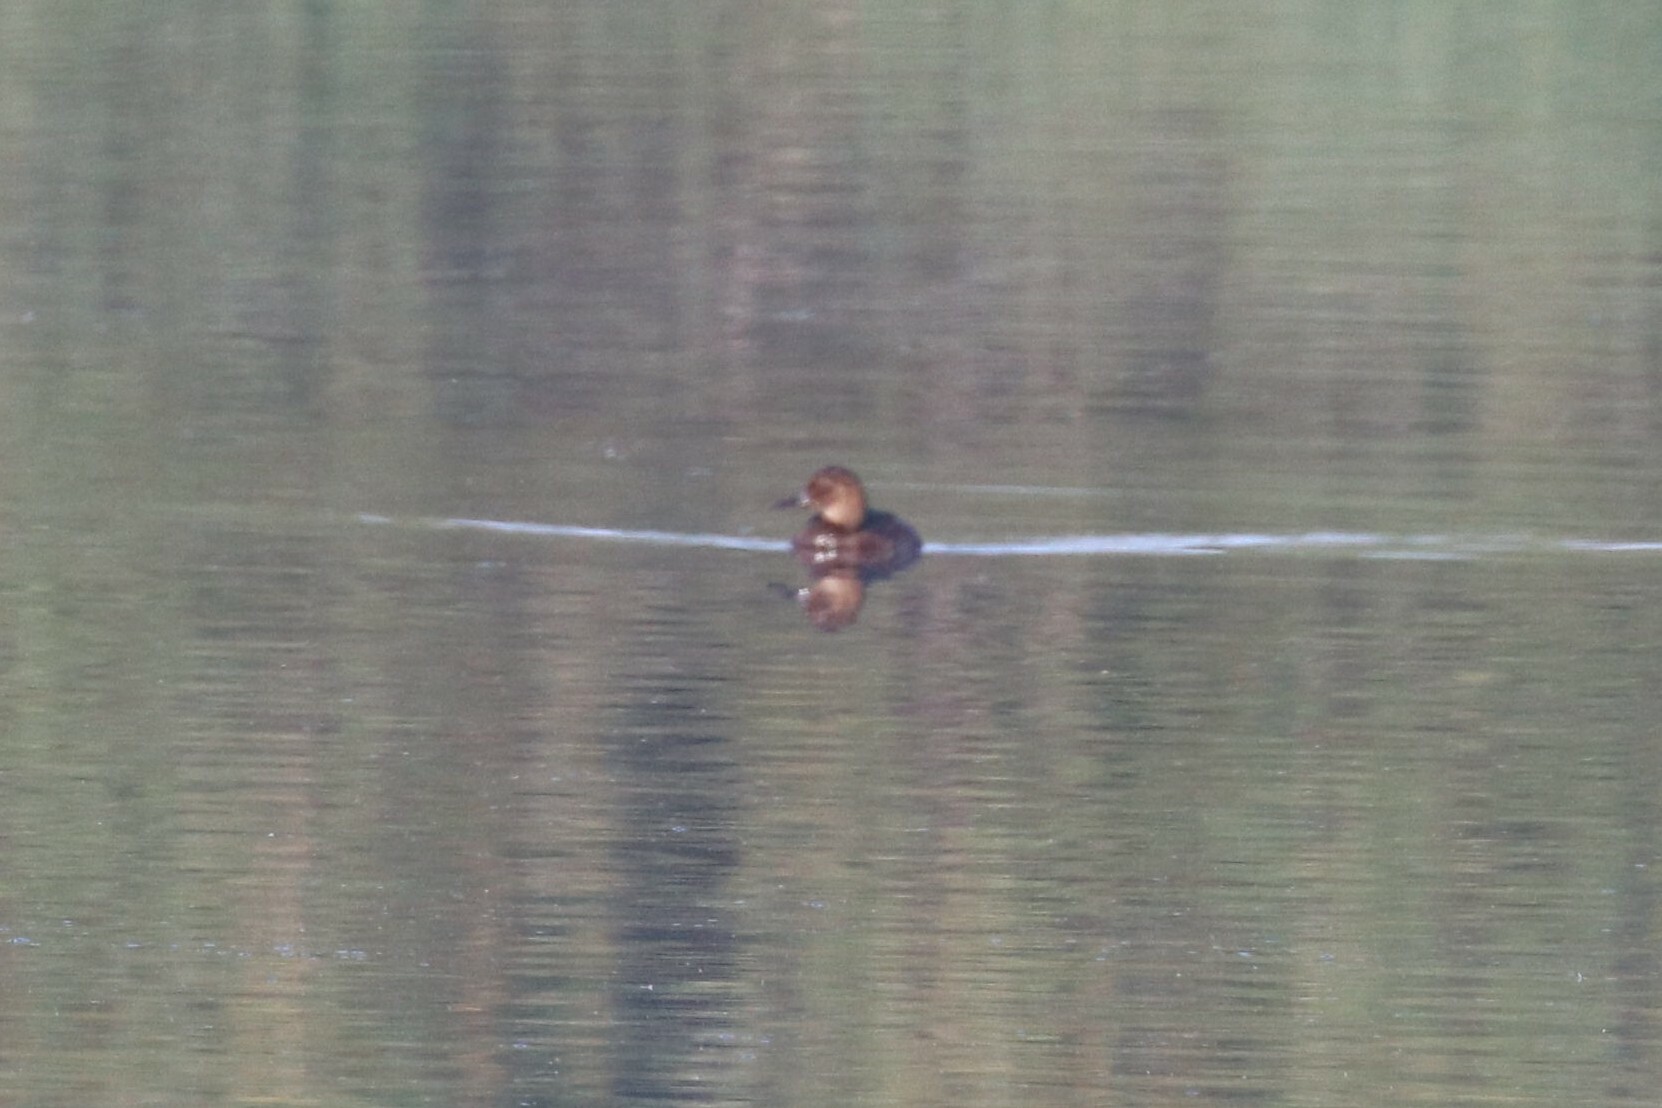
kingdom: Animalia
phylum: Chordata
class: Aves
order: Anseriformes
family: Anatidae
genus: Aythya
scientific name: Aythya ferina
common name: Common pochard
